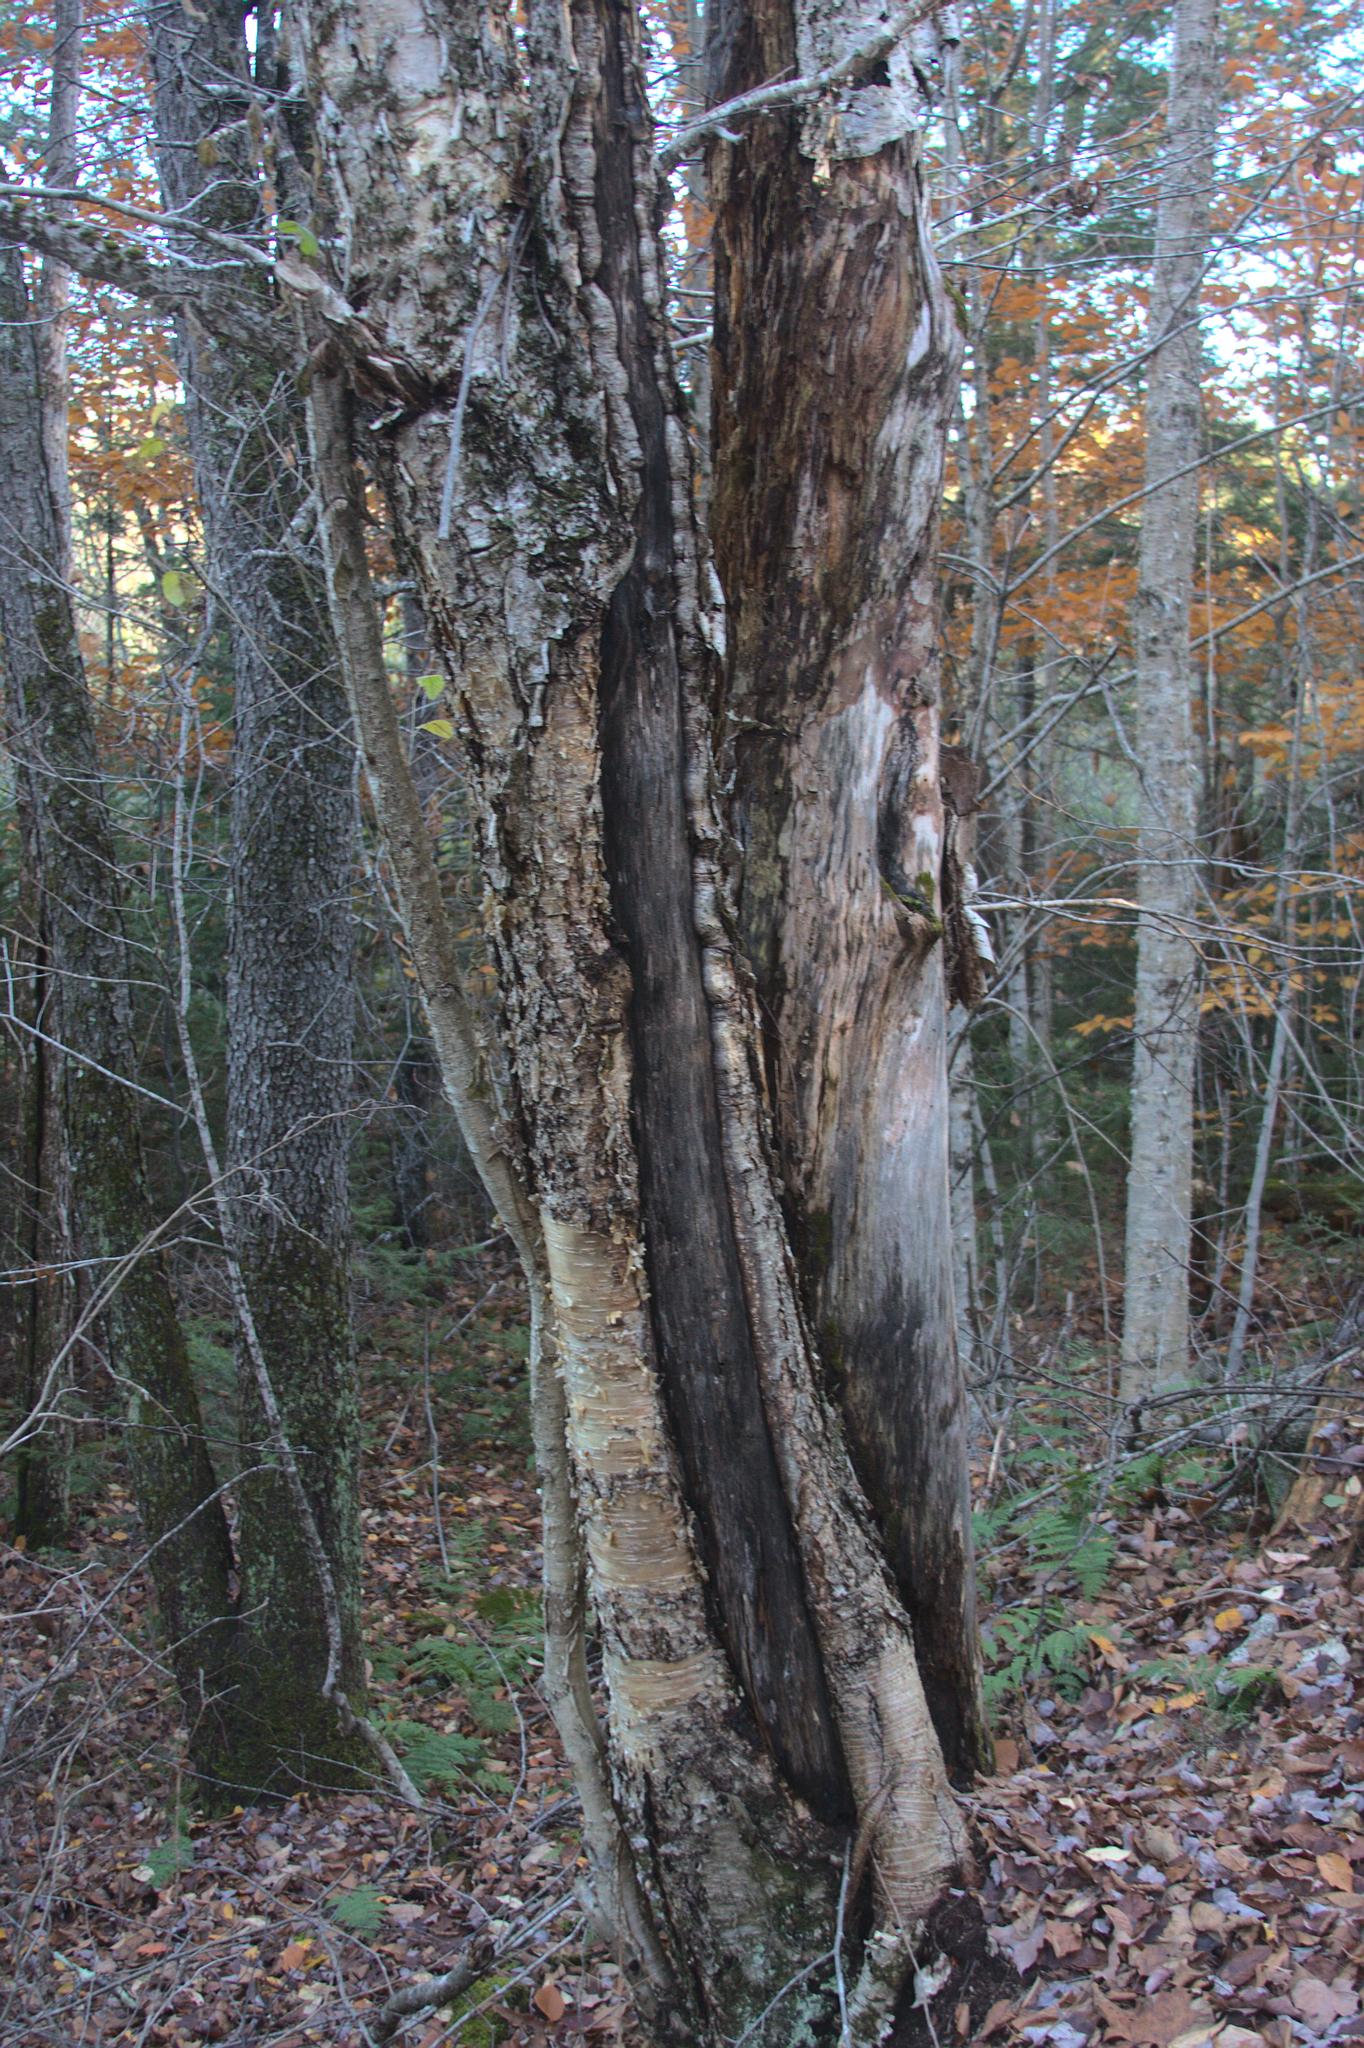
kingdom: Plantae
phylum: Tracheophyta
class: Magnoliopsida
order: Fagales
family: Betulaceae
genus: Betula
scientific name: Betula alleghaniensis
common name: Yellow birch
